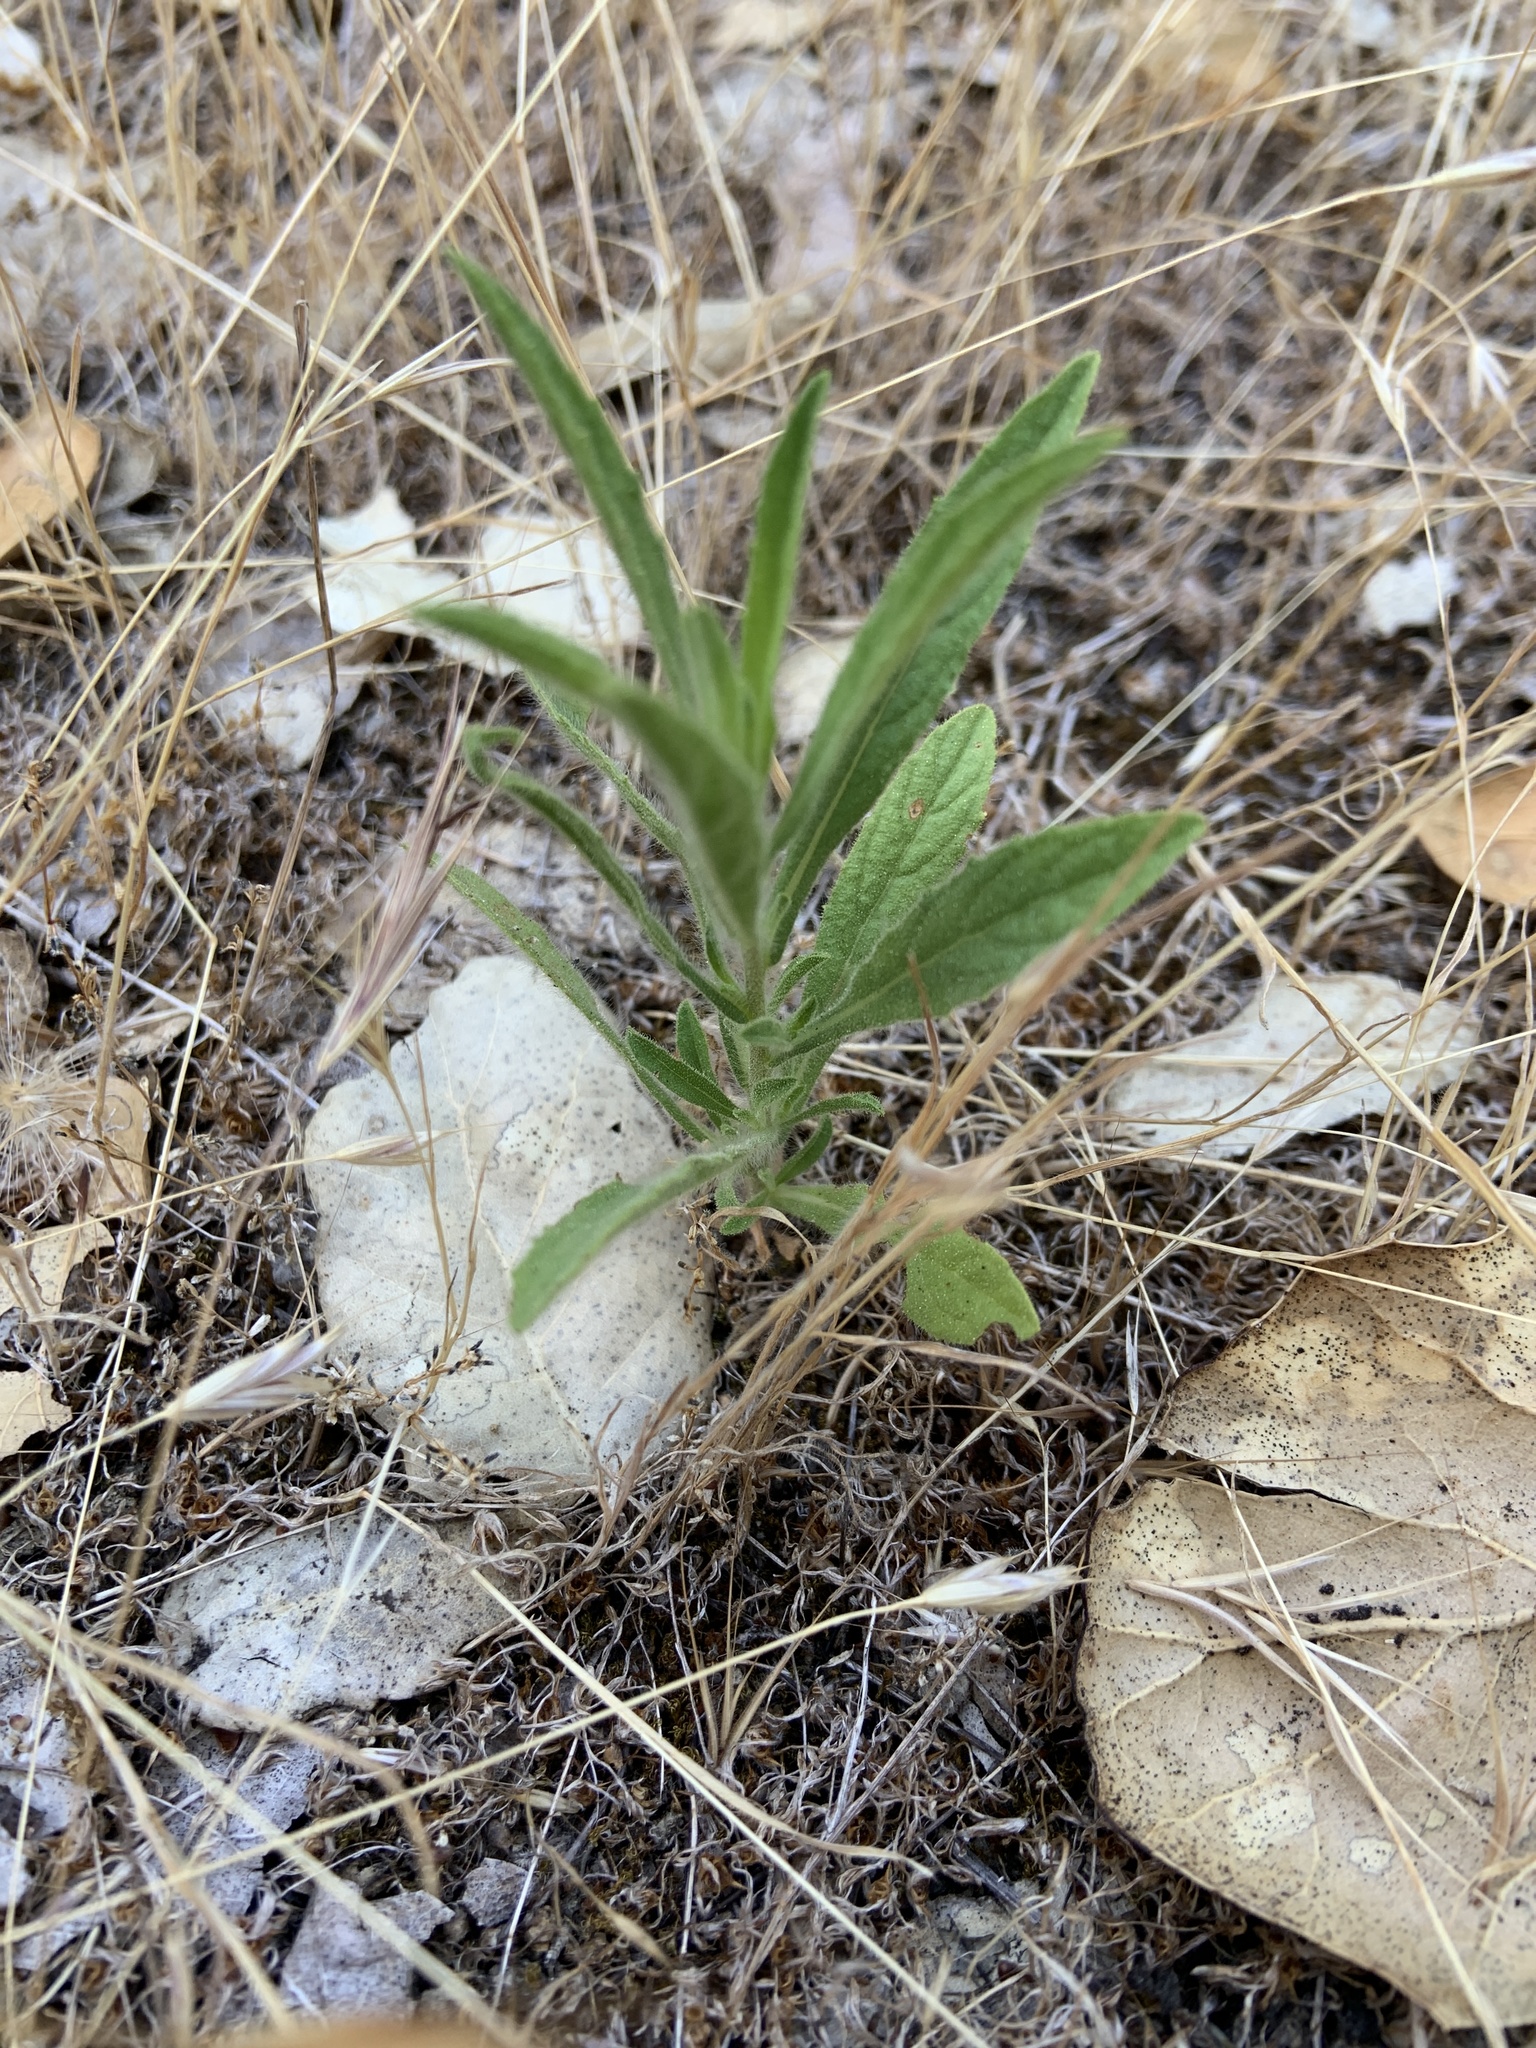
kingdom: Plantae
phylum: Tracheophyta
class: Magnoliopsida
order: Asterales
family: Asteraceae
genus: Dittrichia
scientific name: Dittrichia graveolens
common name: Stinking fleabane
